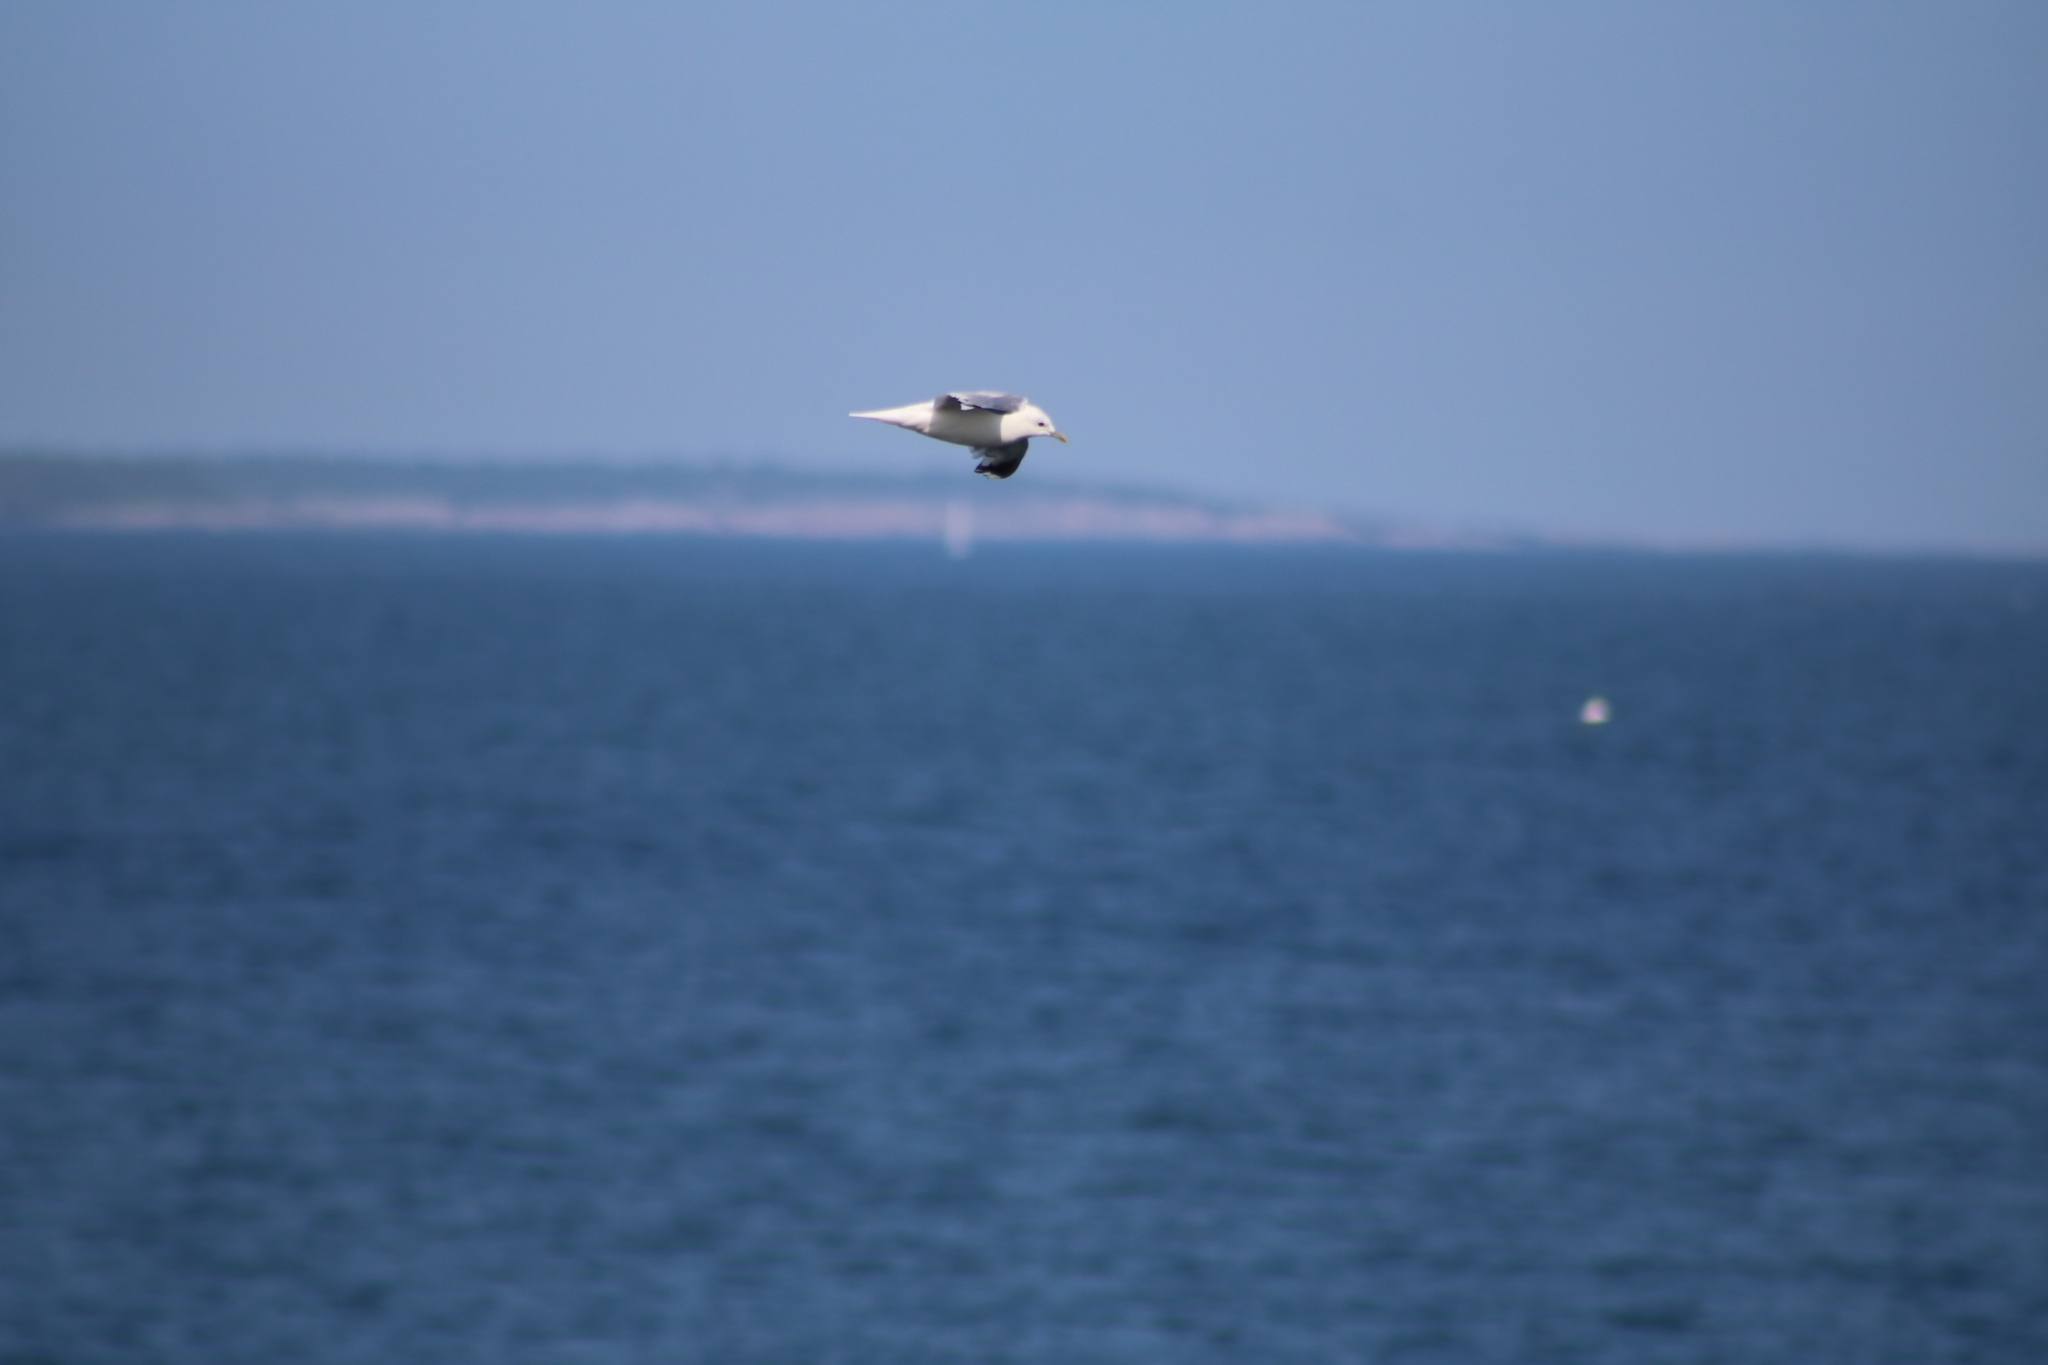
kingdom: Animalia
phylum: Chordata
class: Aves
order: Charadriiformes
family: Laridae
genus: Larus
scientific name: Larus canus
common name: Mew gull
